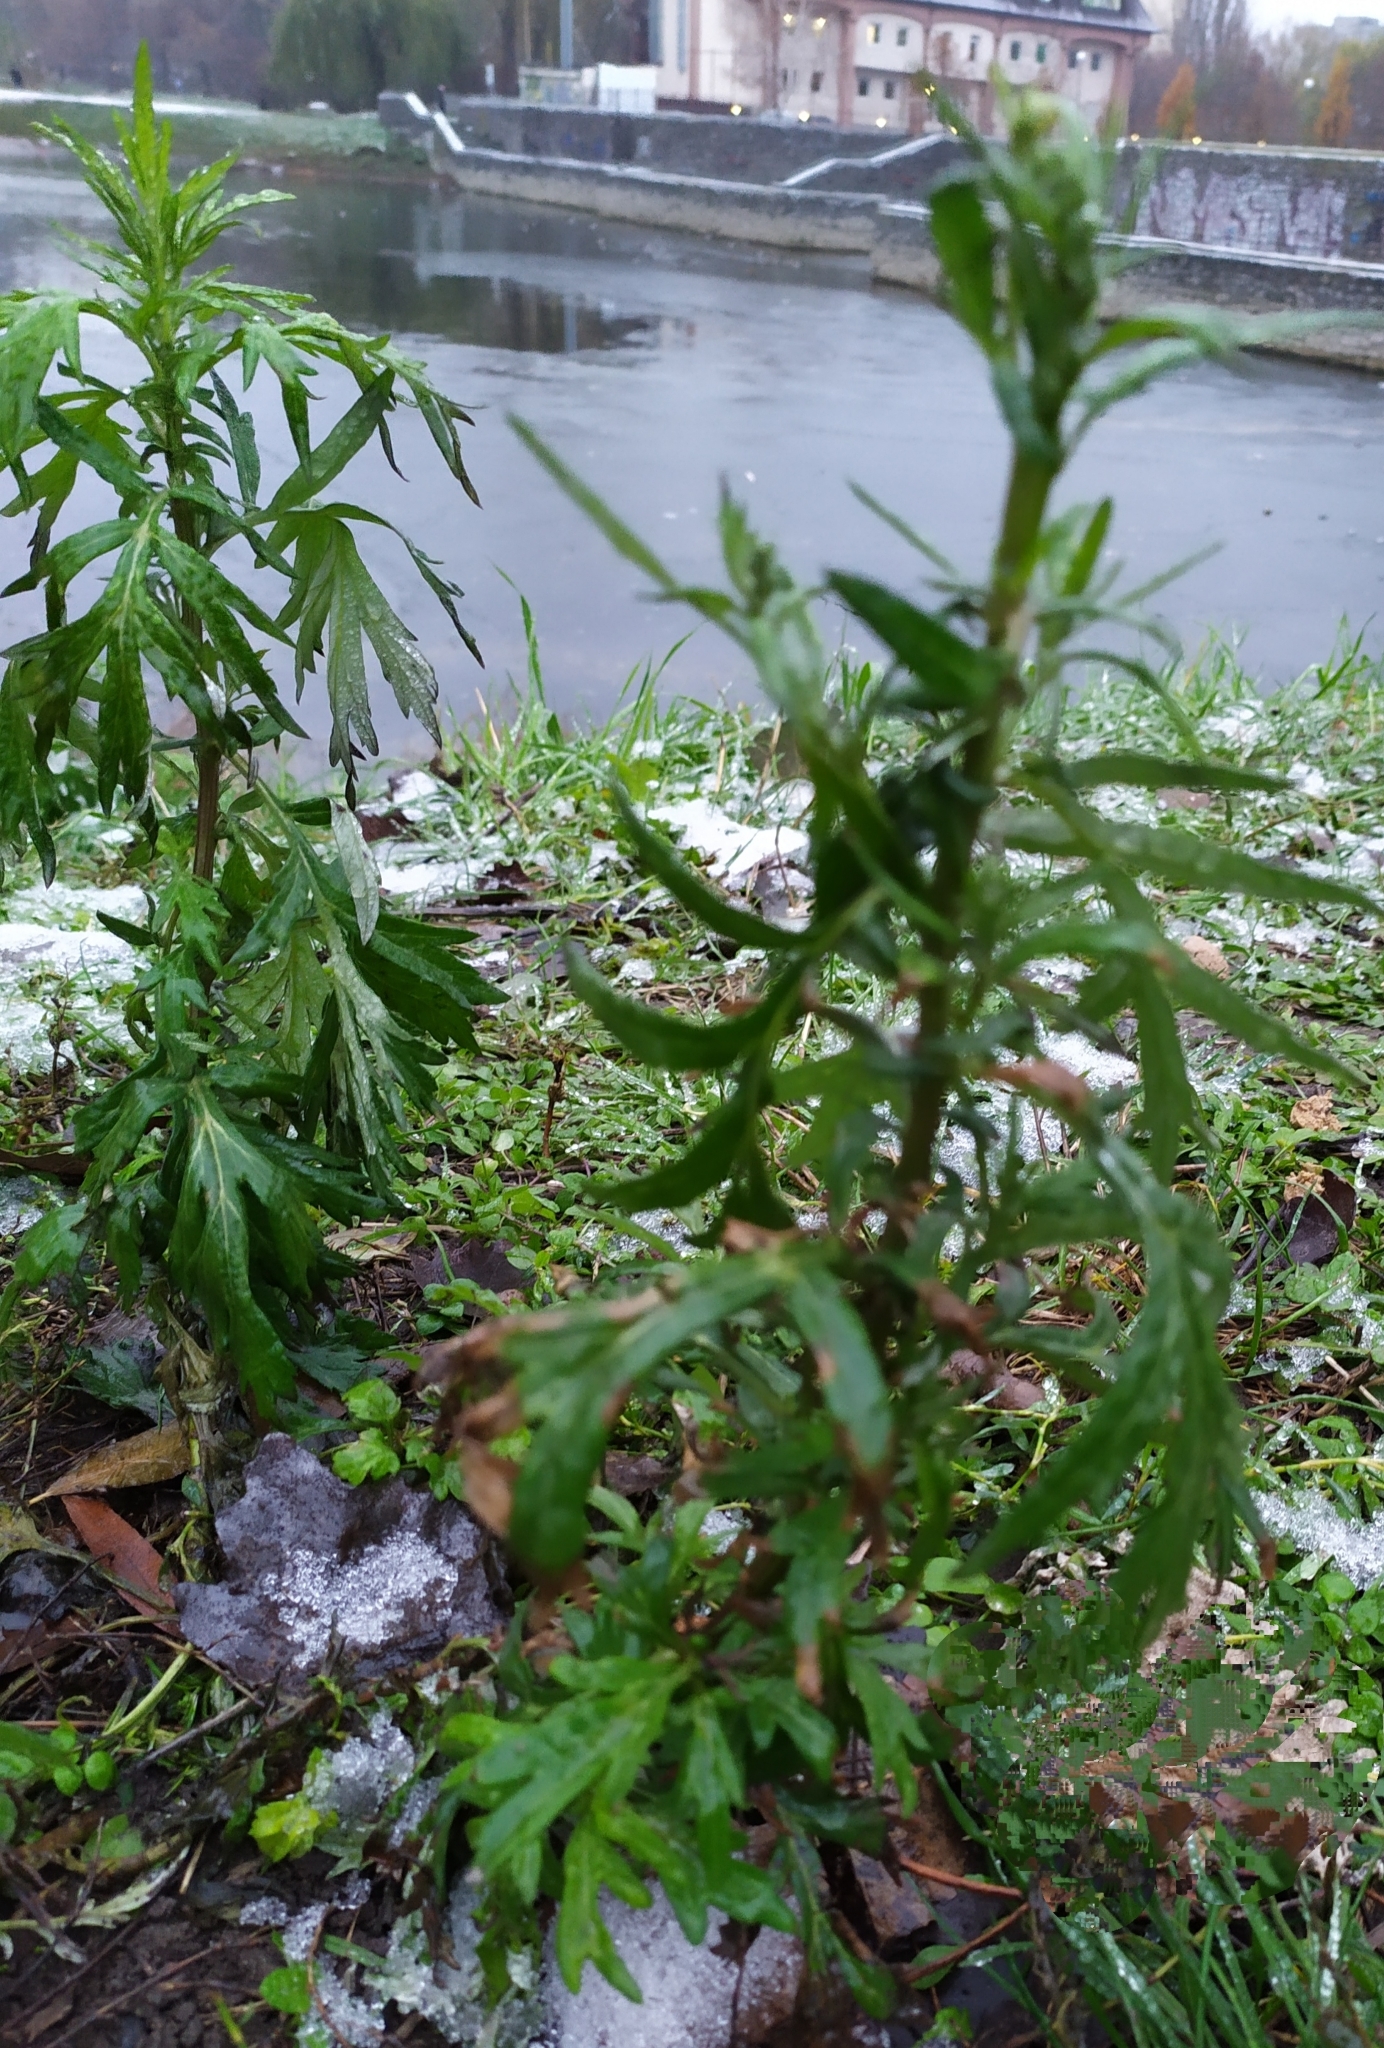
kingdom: Plantae
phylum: Tracheophyta
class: Magnoliopsida
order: Asterales
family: Asteraceae
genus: Artemisia
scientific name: Artemisia vulgaris
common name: Mugwort
